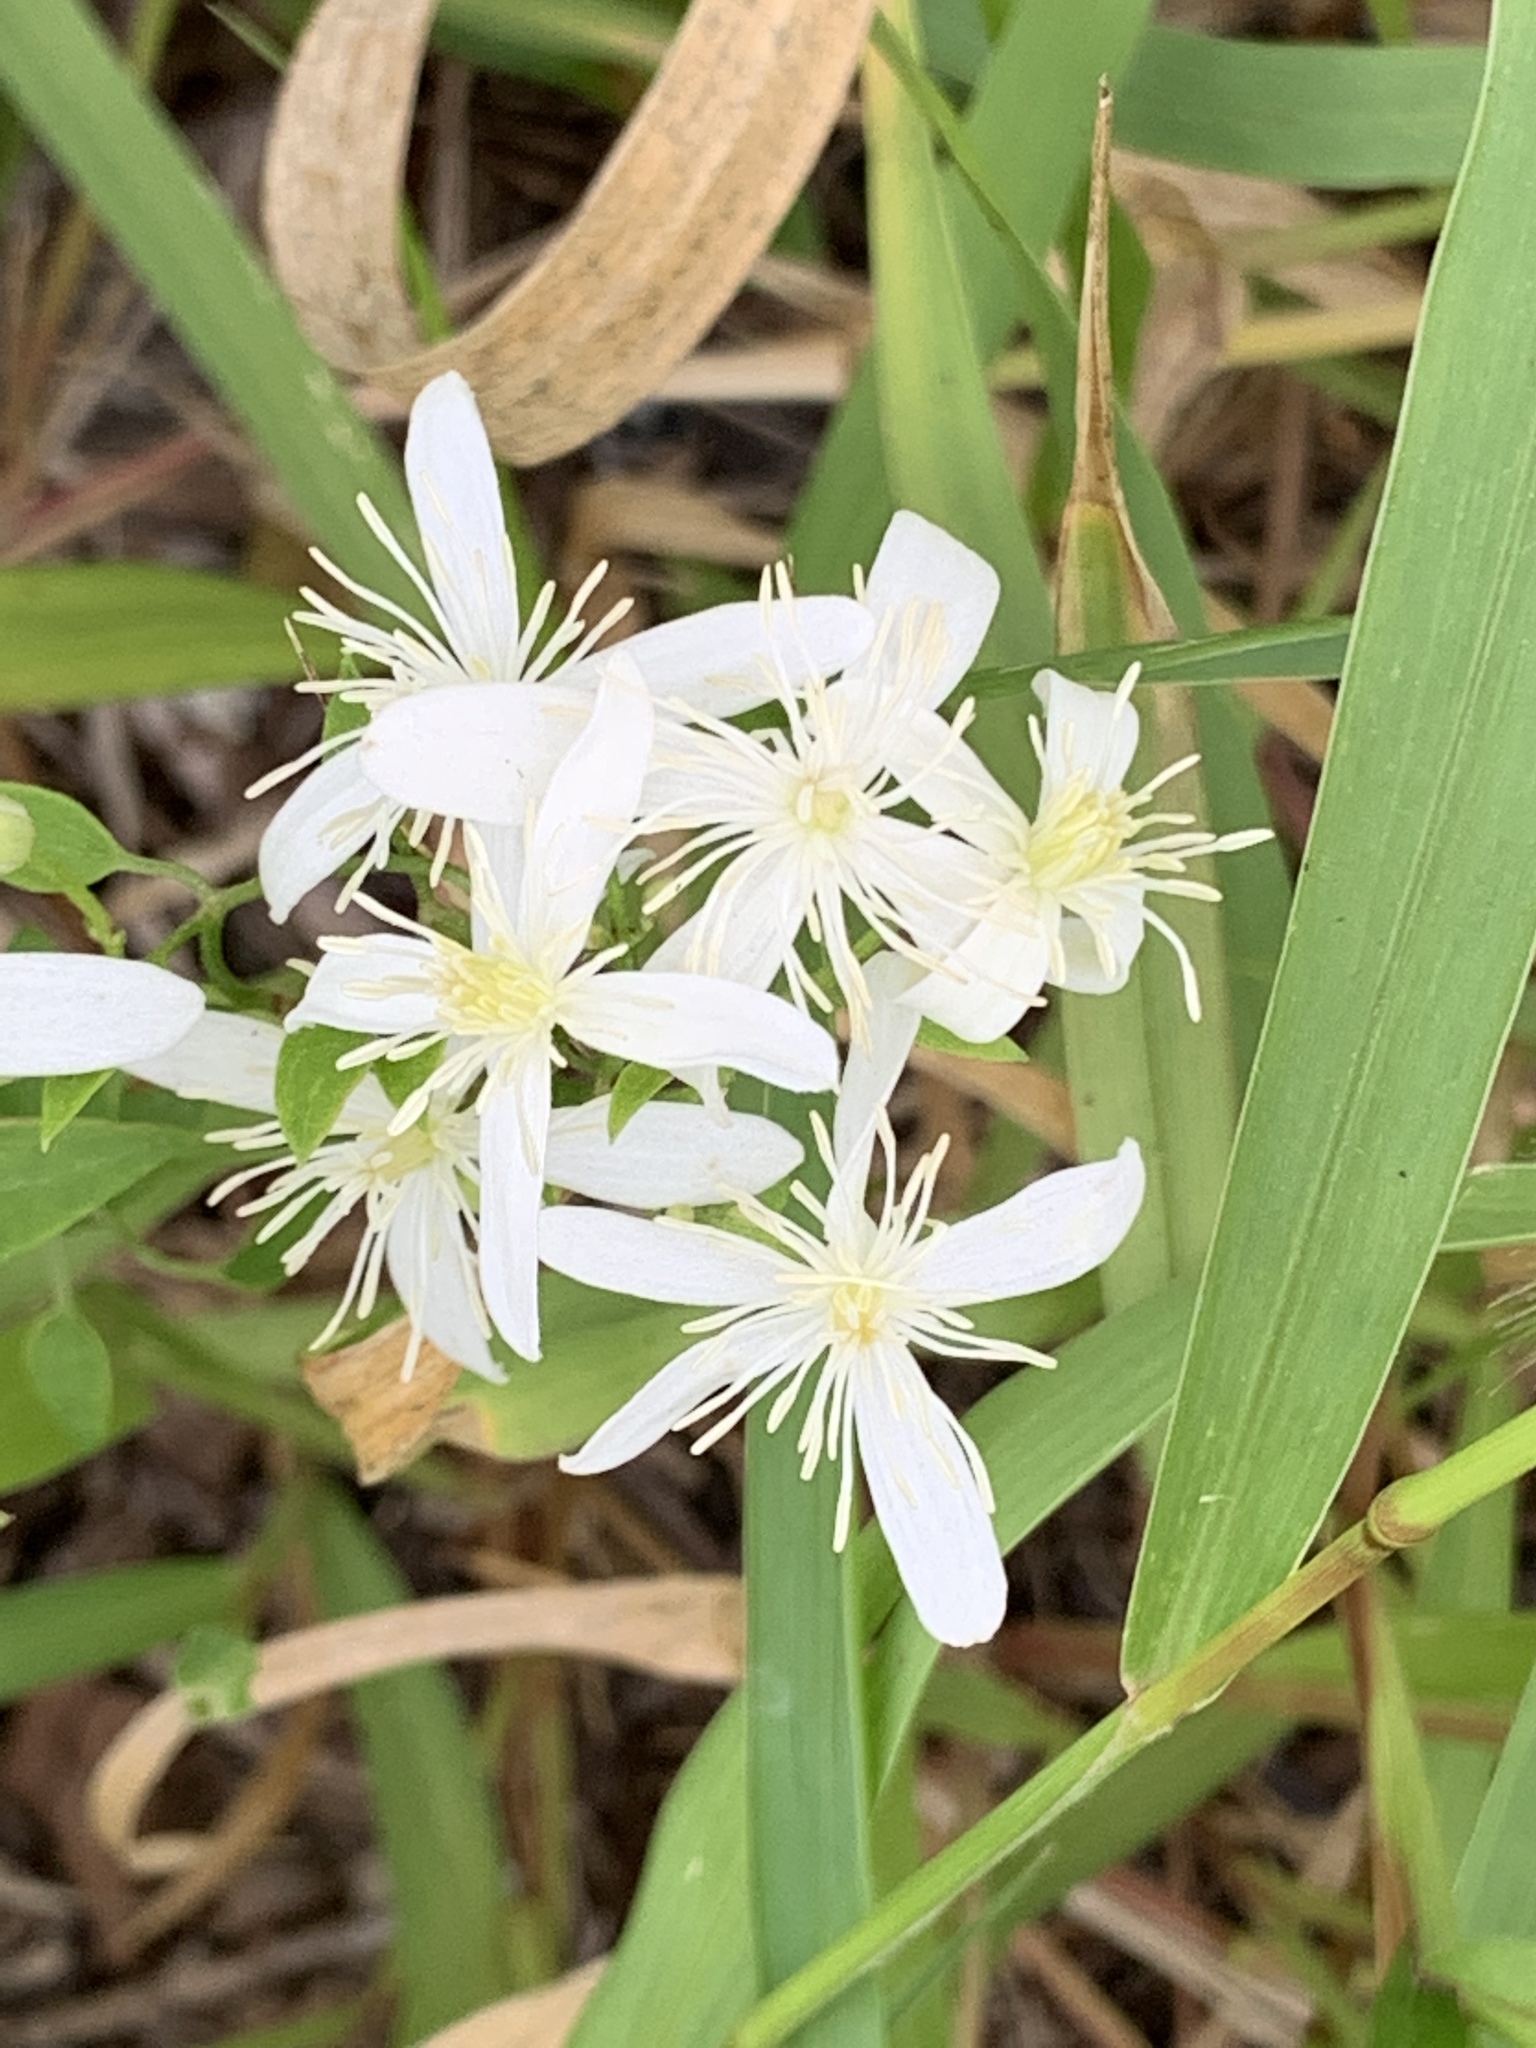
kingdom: Plantae
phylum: Tracheophyta
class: Magnoliopsida
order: Ranunculales
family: Ranunculaceae
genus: Clematis
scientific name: Clematis terniflora
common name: Sweet autumn clematis
